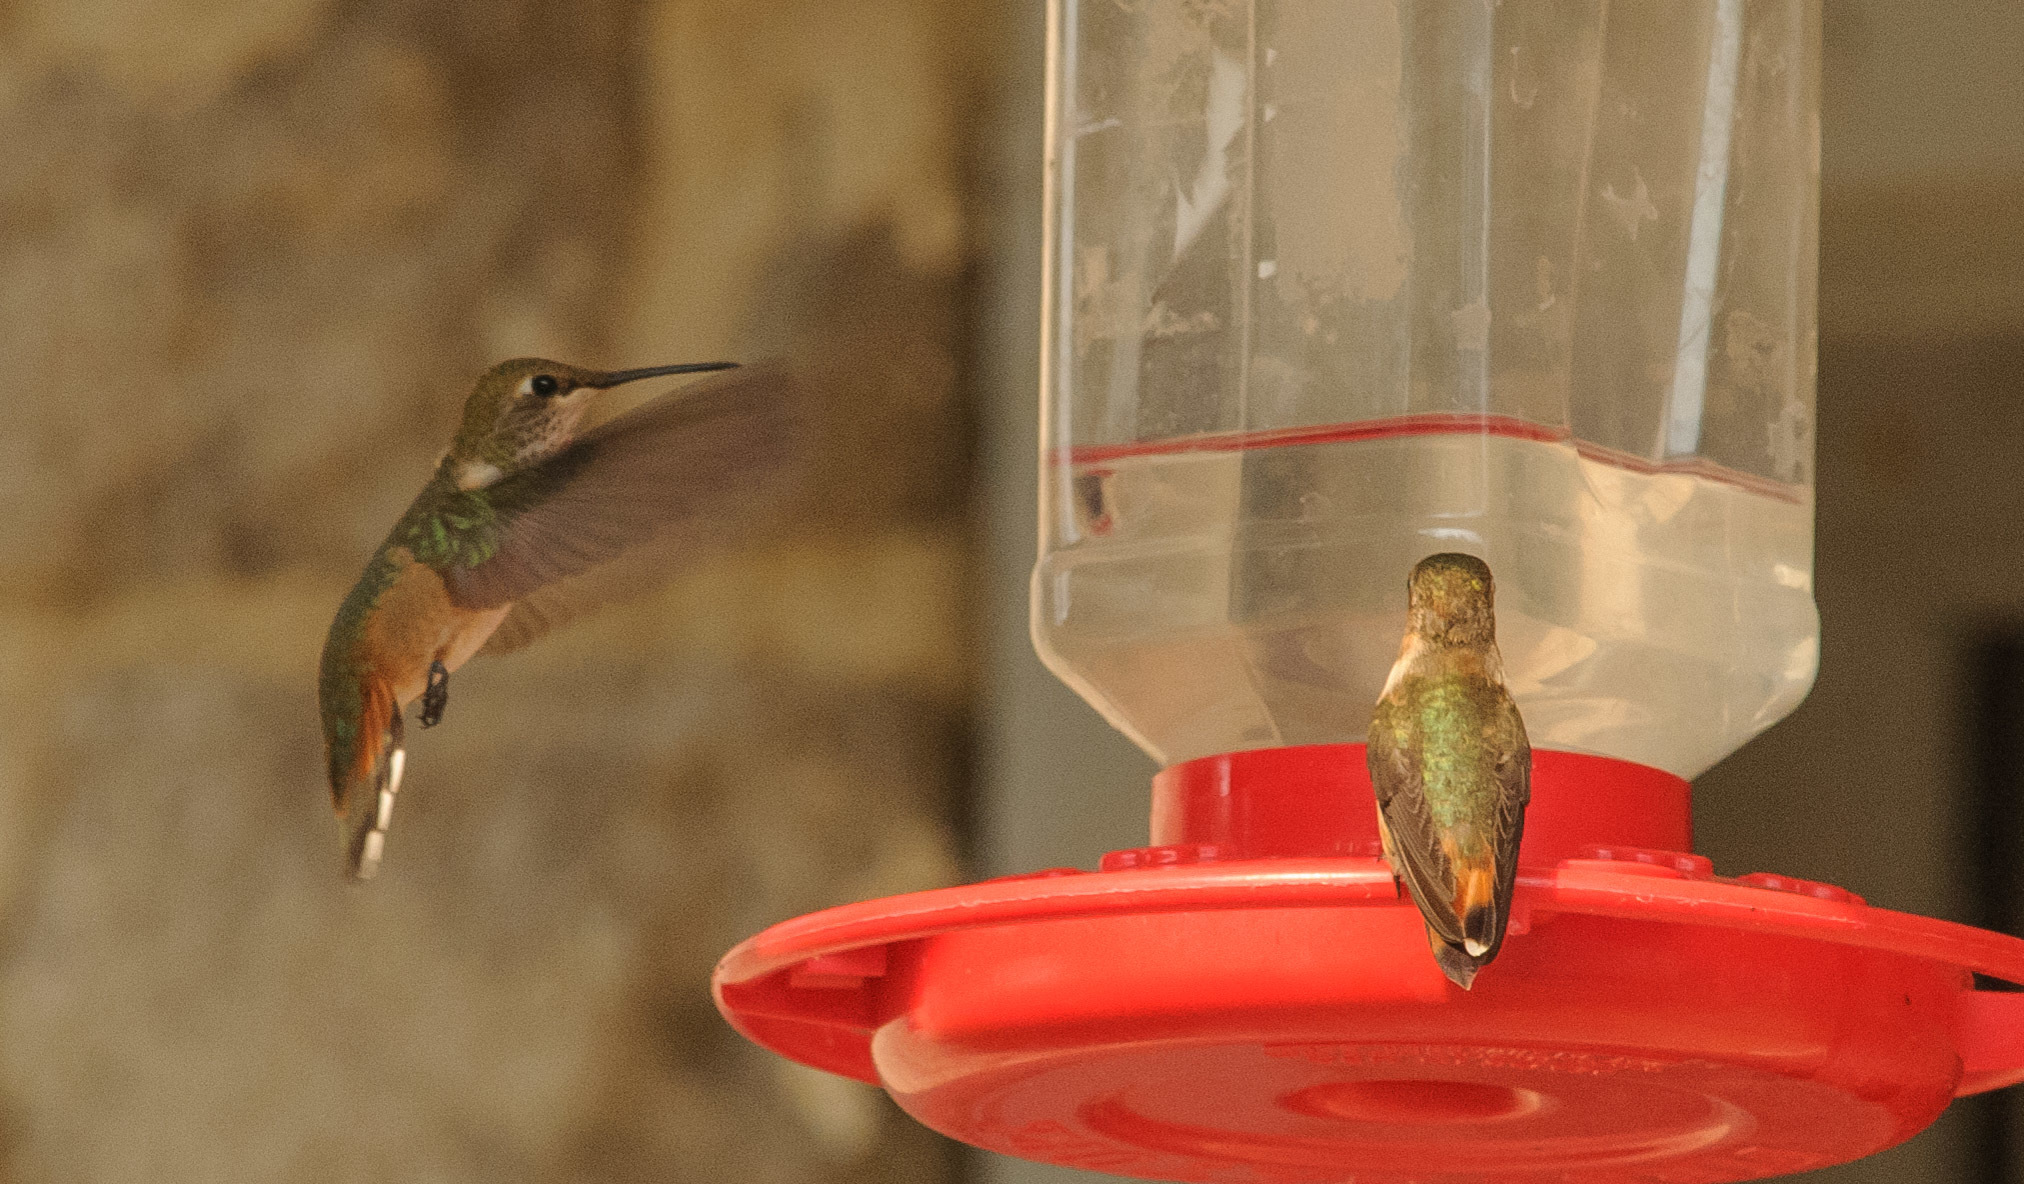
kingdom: Animalia
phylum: Chordata
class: Aves
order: Apodiformes
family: Trochilidae
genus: Selasphorus
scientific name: Selasphorus rufus
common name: Rufous hummingbird
